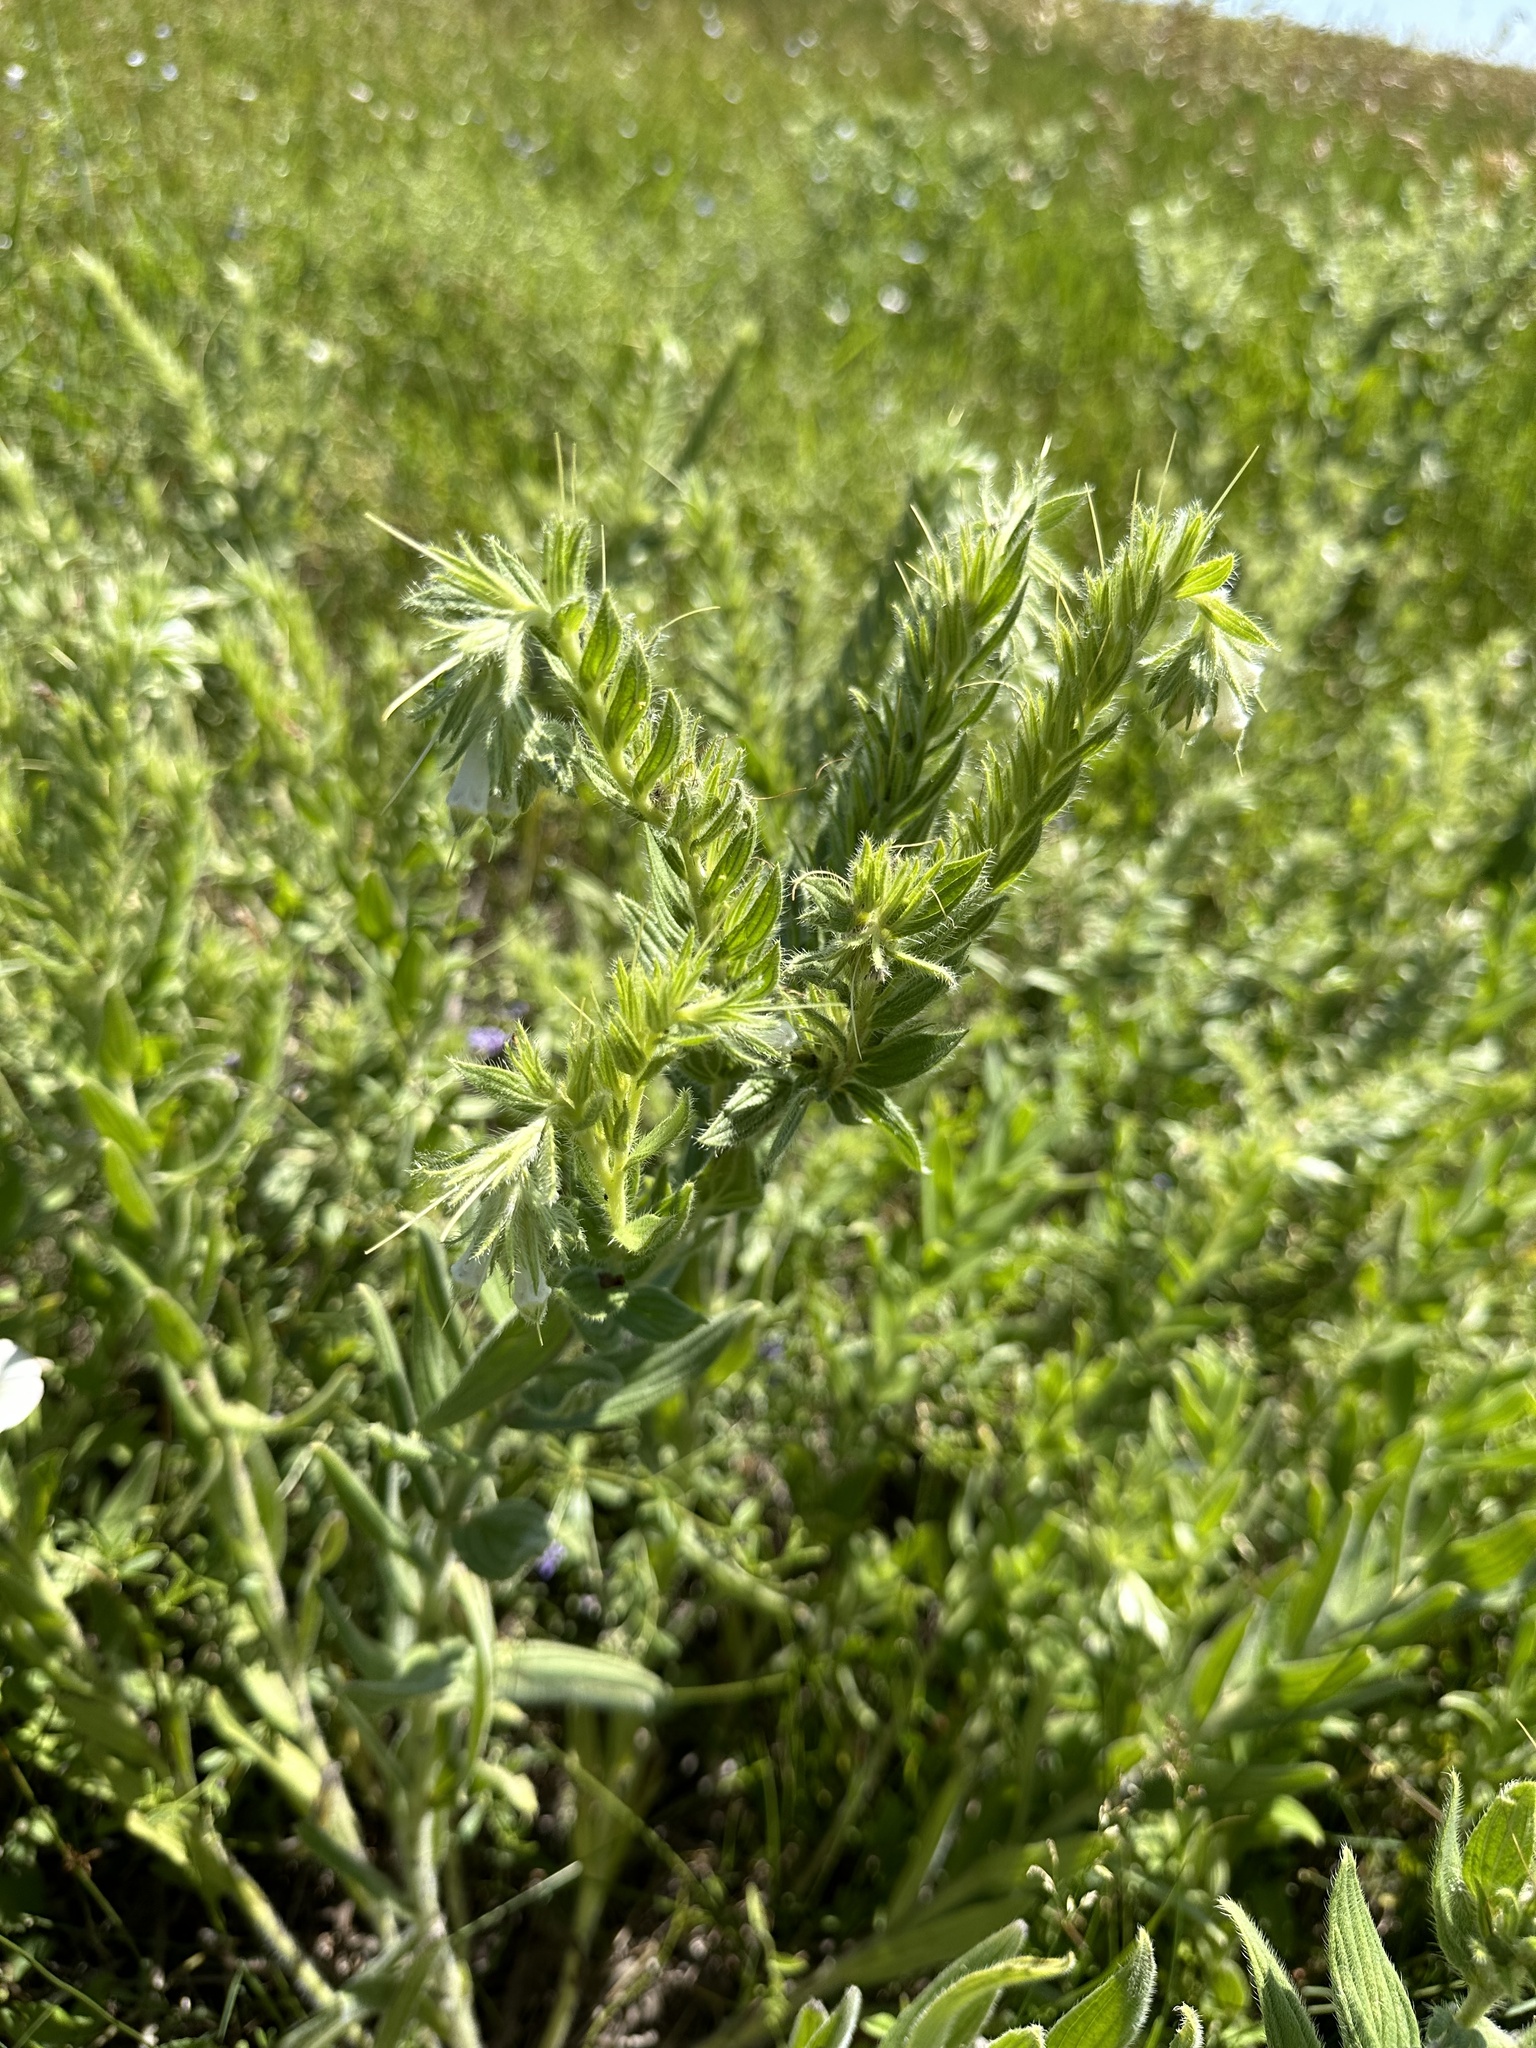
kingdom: Plantae
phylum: Tracheophyta
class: Magnoliopsida
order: Boraginales
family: Boraginaceae
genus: Lithospermum
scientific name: Lithospermum occidentale
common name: Western false gromwell
